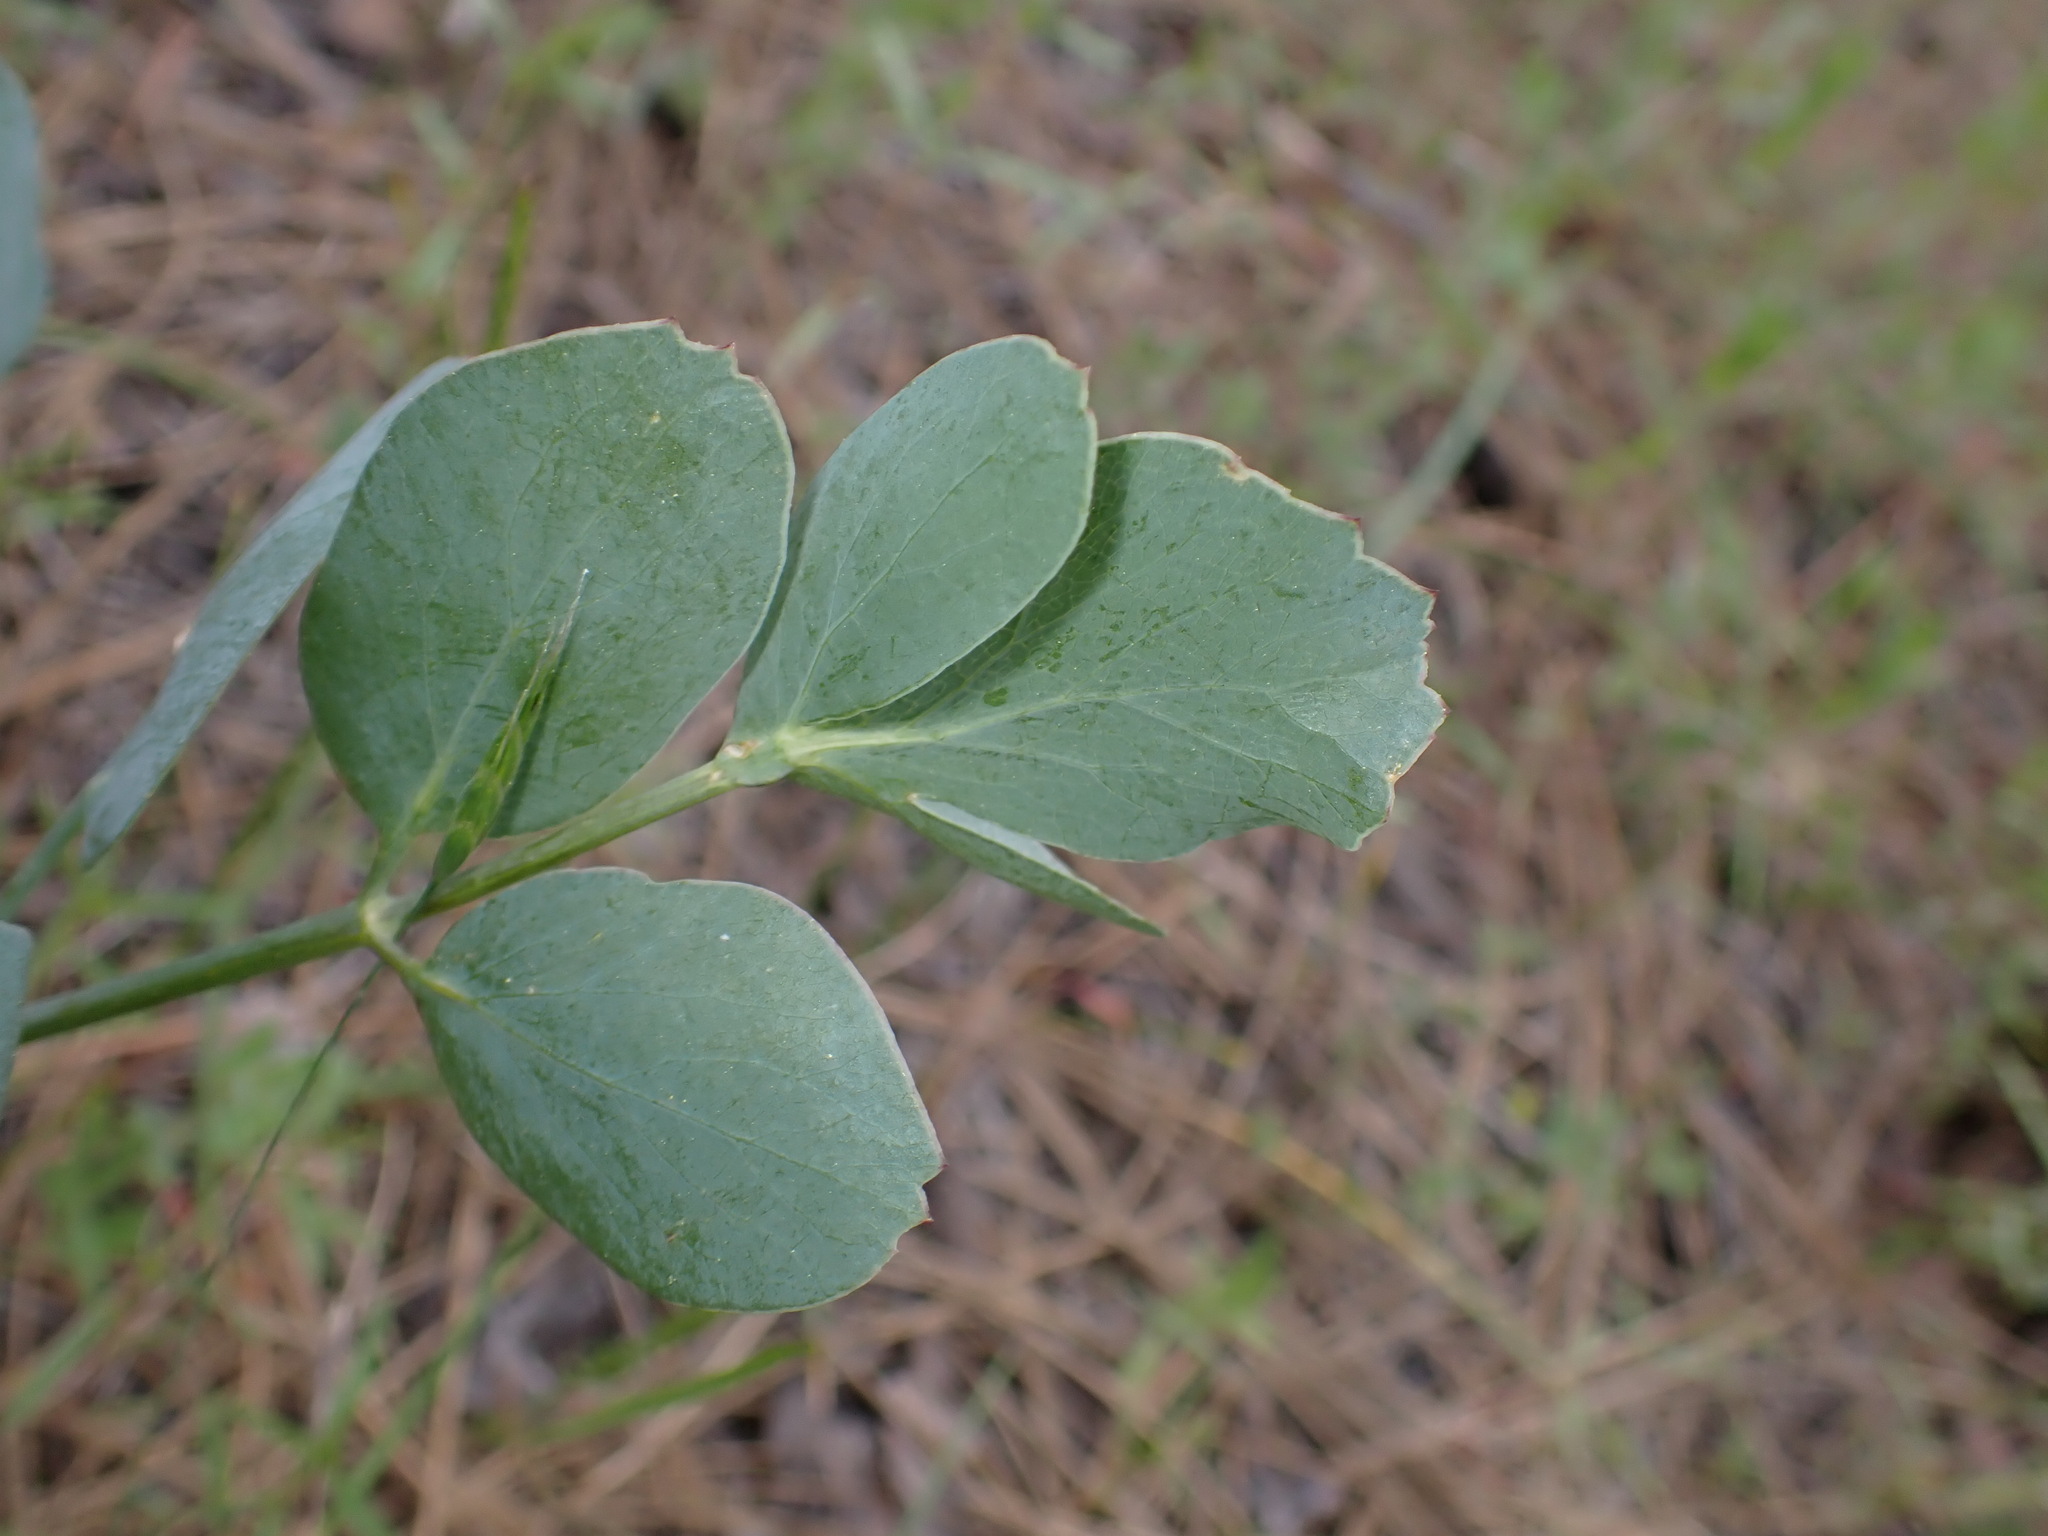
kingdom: Plantae
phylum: Tracheophyta
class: Magnoliopsida
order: Apiales
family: Apiaceae
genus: Lomatium
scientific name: Lomatium nudicaule
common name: Pestle lomatium
